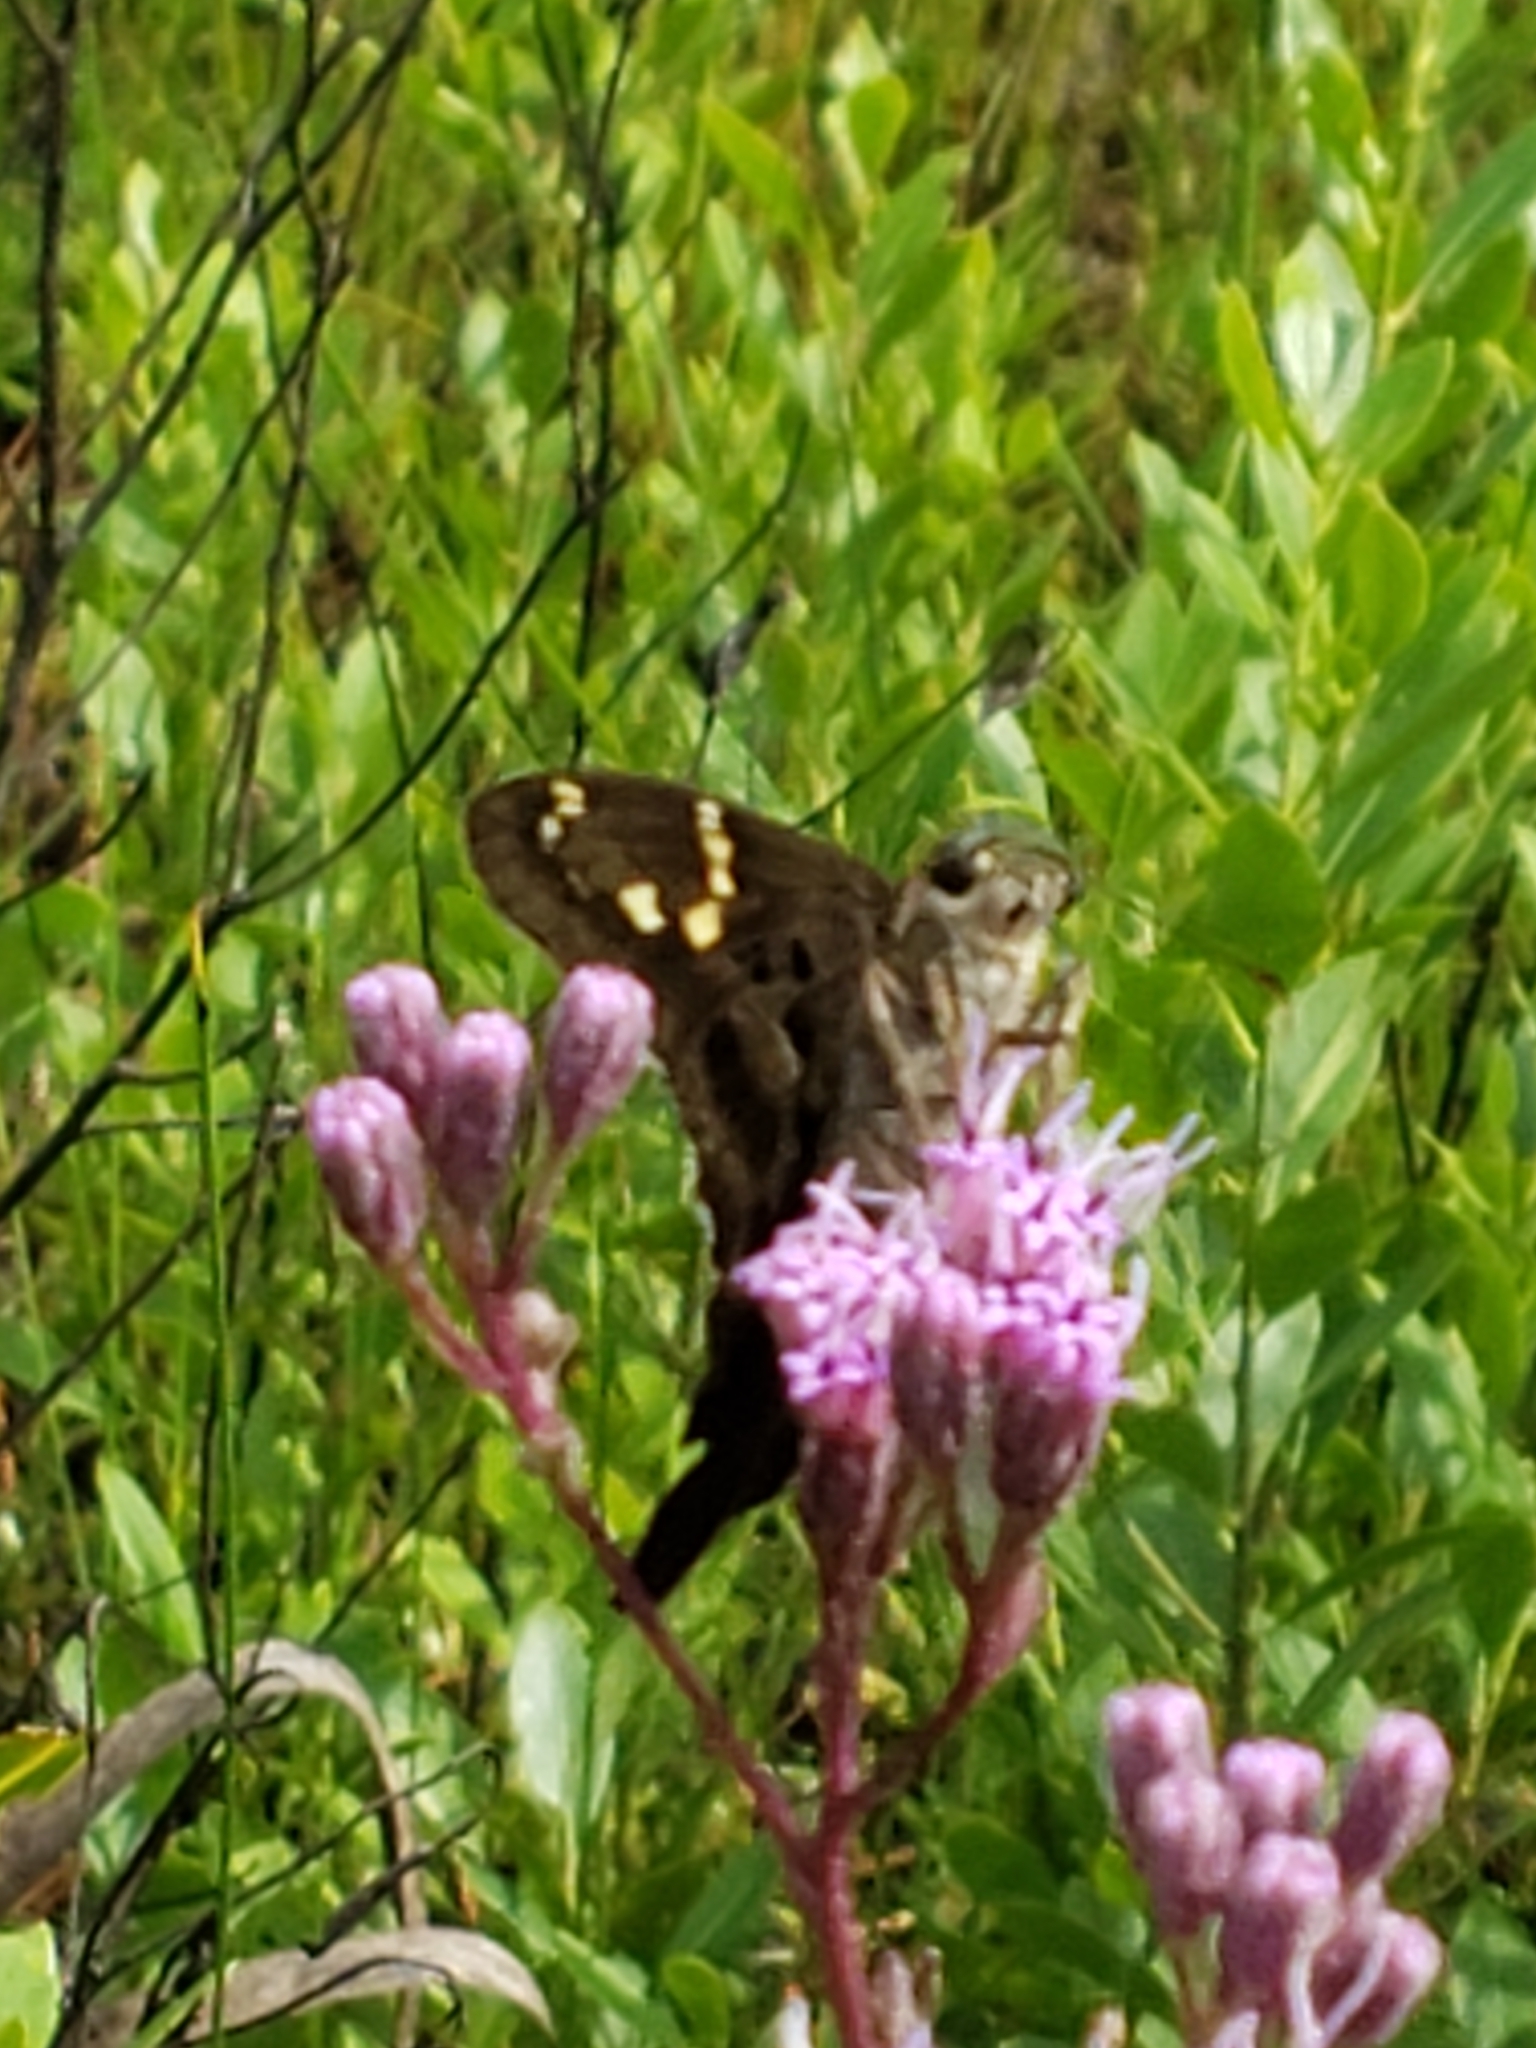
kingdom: Animalia
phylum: Arthropoda
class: Insecta
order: Lepidoptera
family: Hesperiidae
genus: Urbanus
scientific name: Urbanus proteus
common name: Long-tailed skipper
